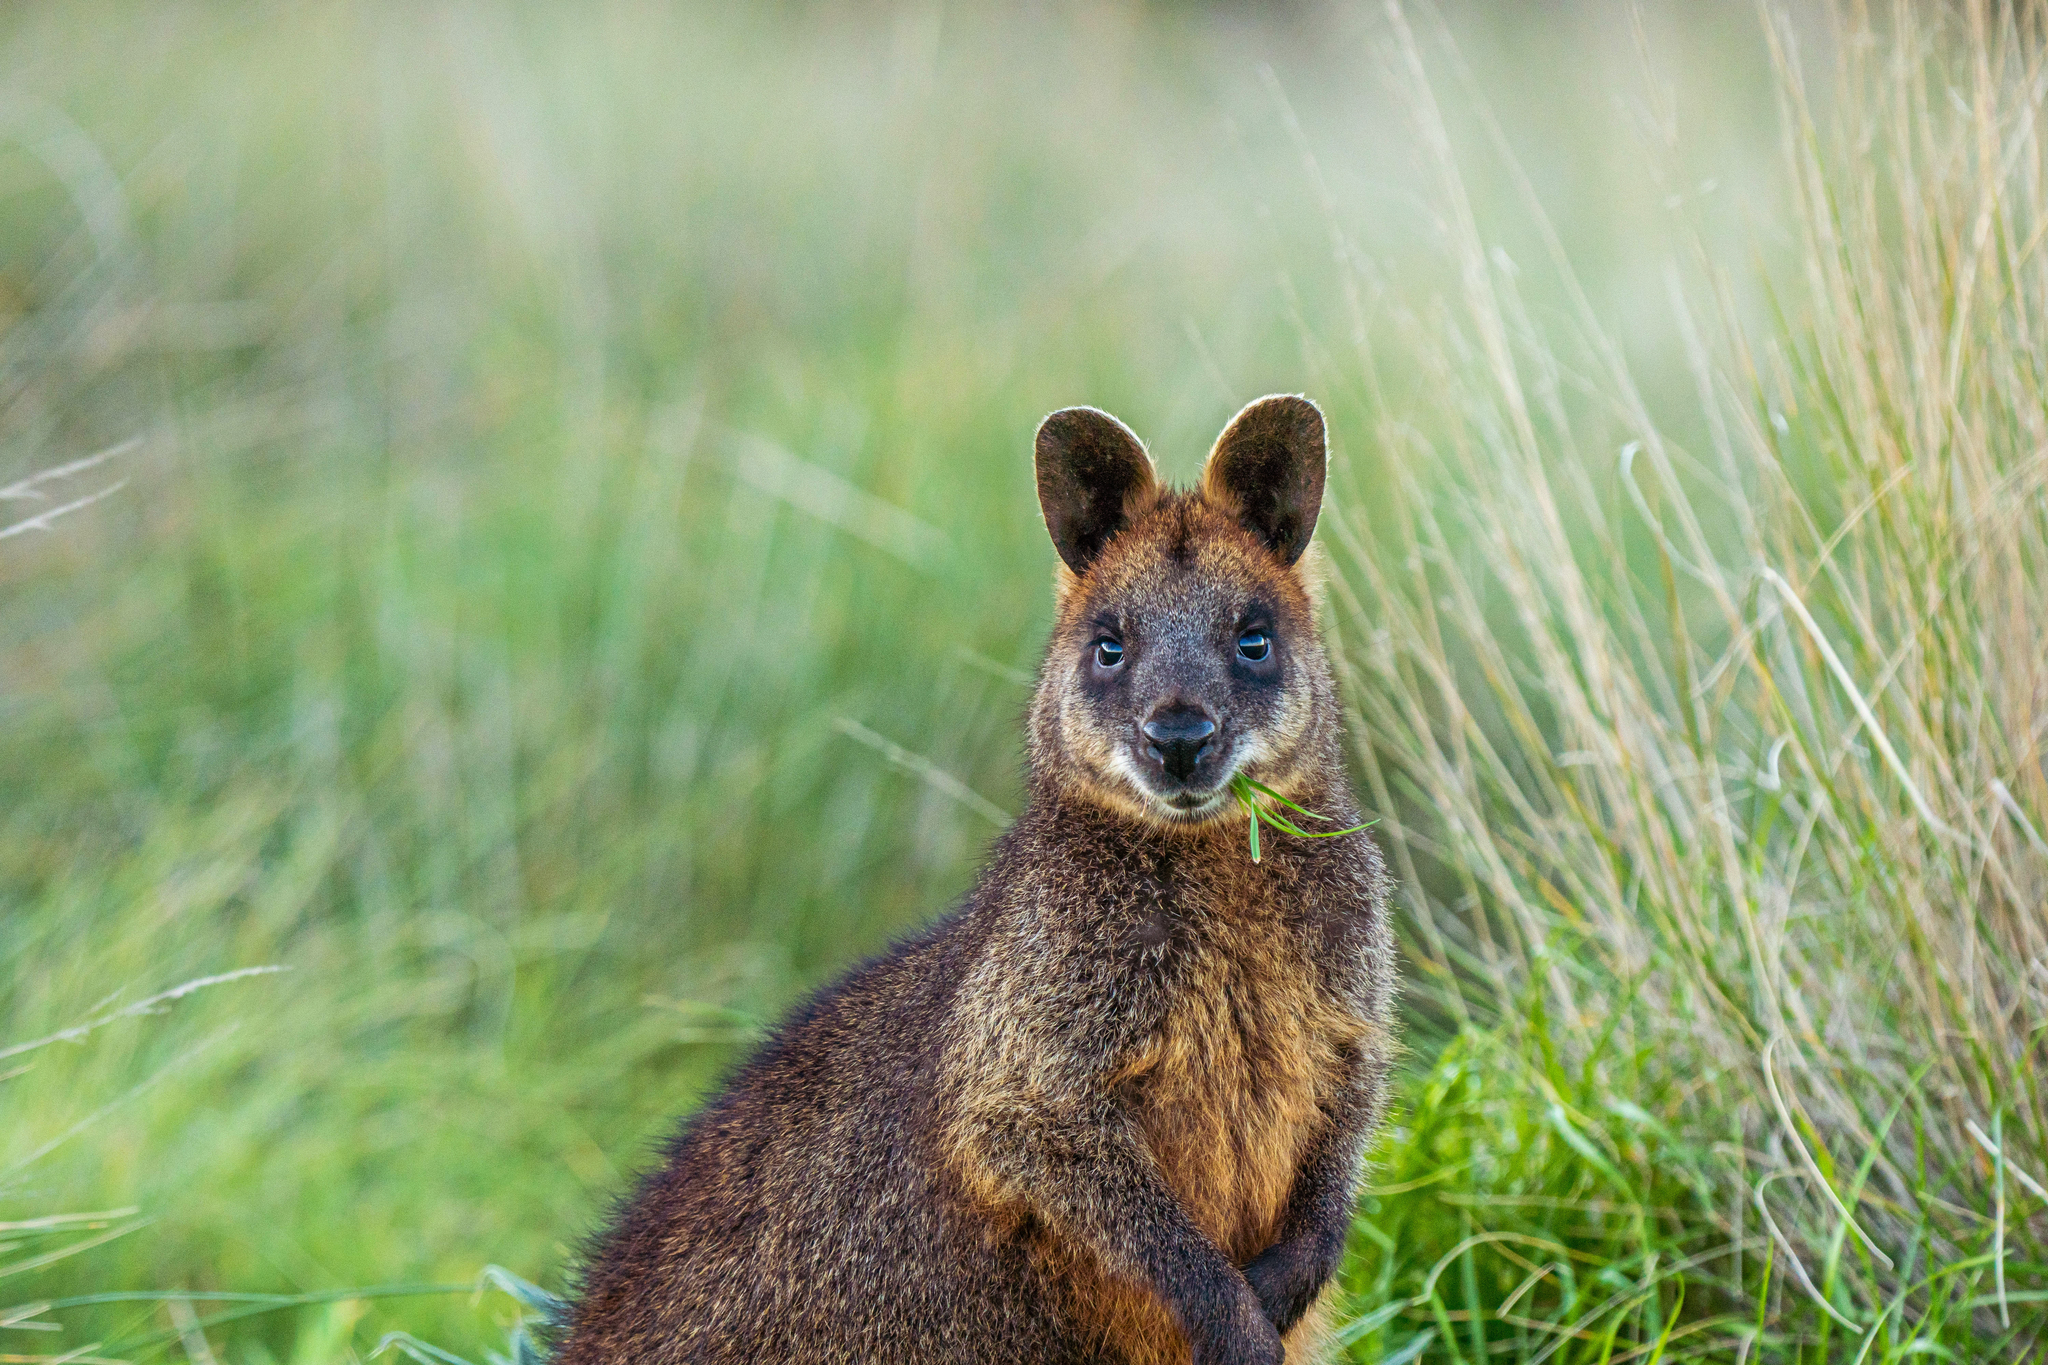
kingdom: Animalia
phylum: Chordata
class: Mammalia
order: Diprotodontia
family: Macropodidae
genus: Wallabia
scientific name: Wallabia bicolor
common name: Swamp wallaby
